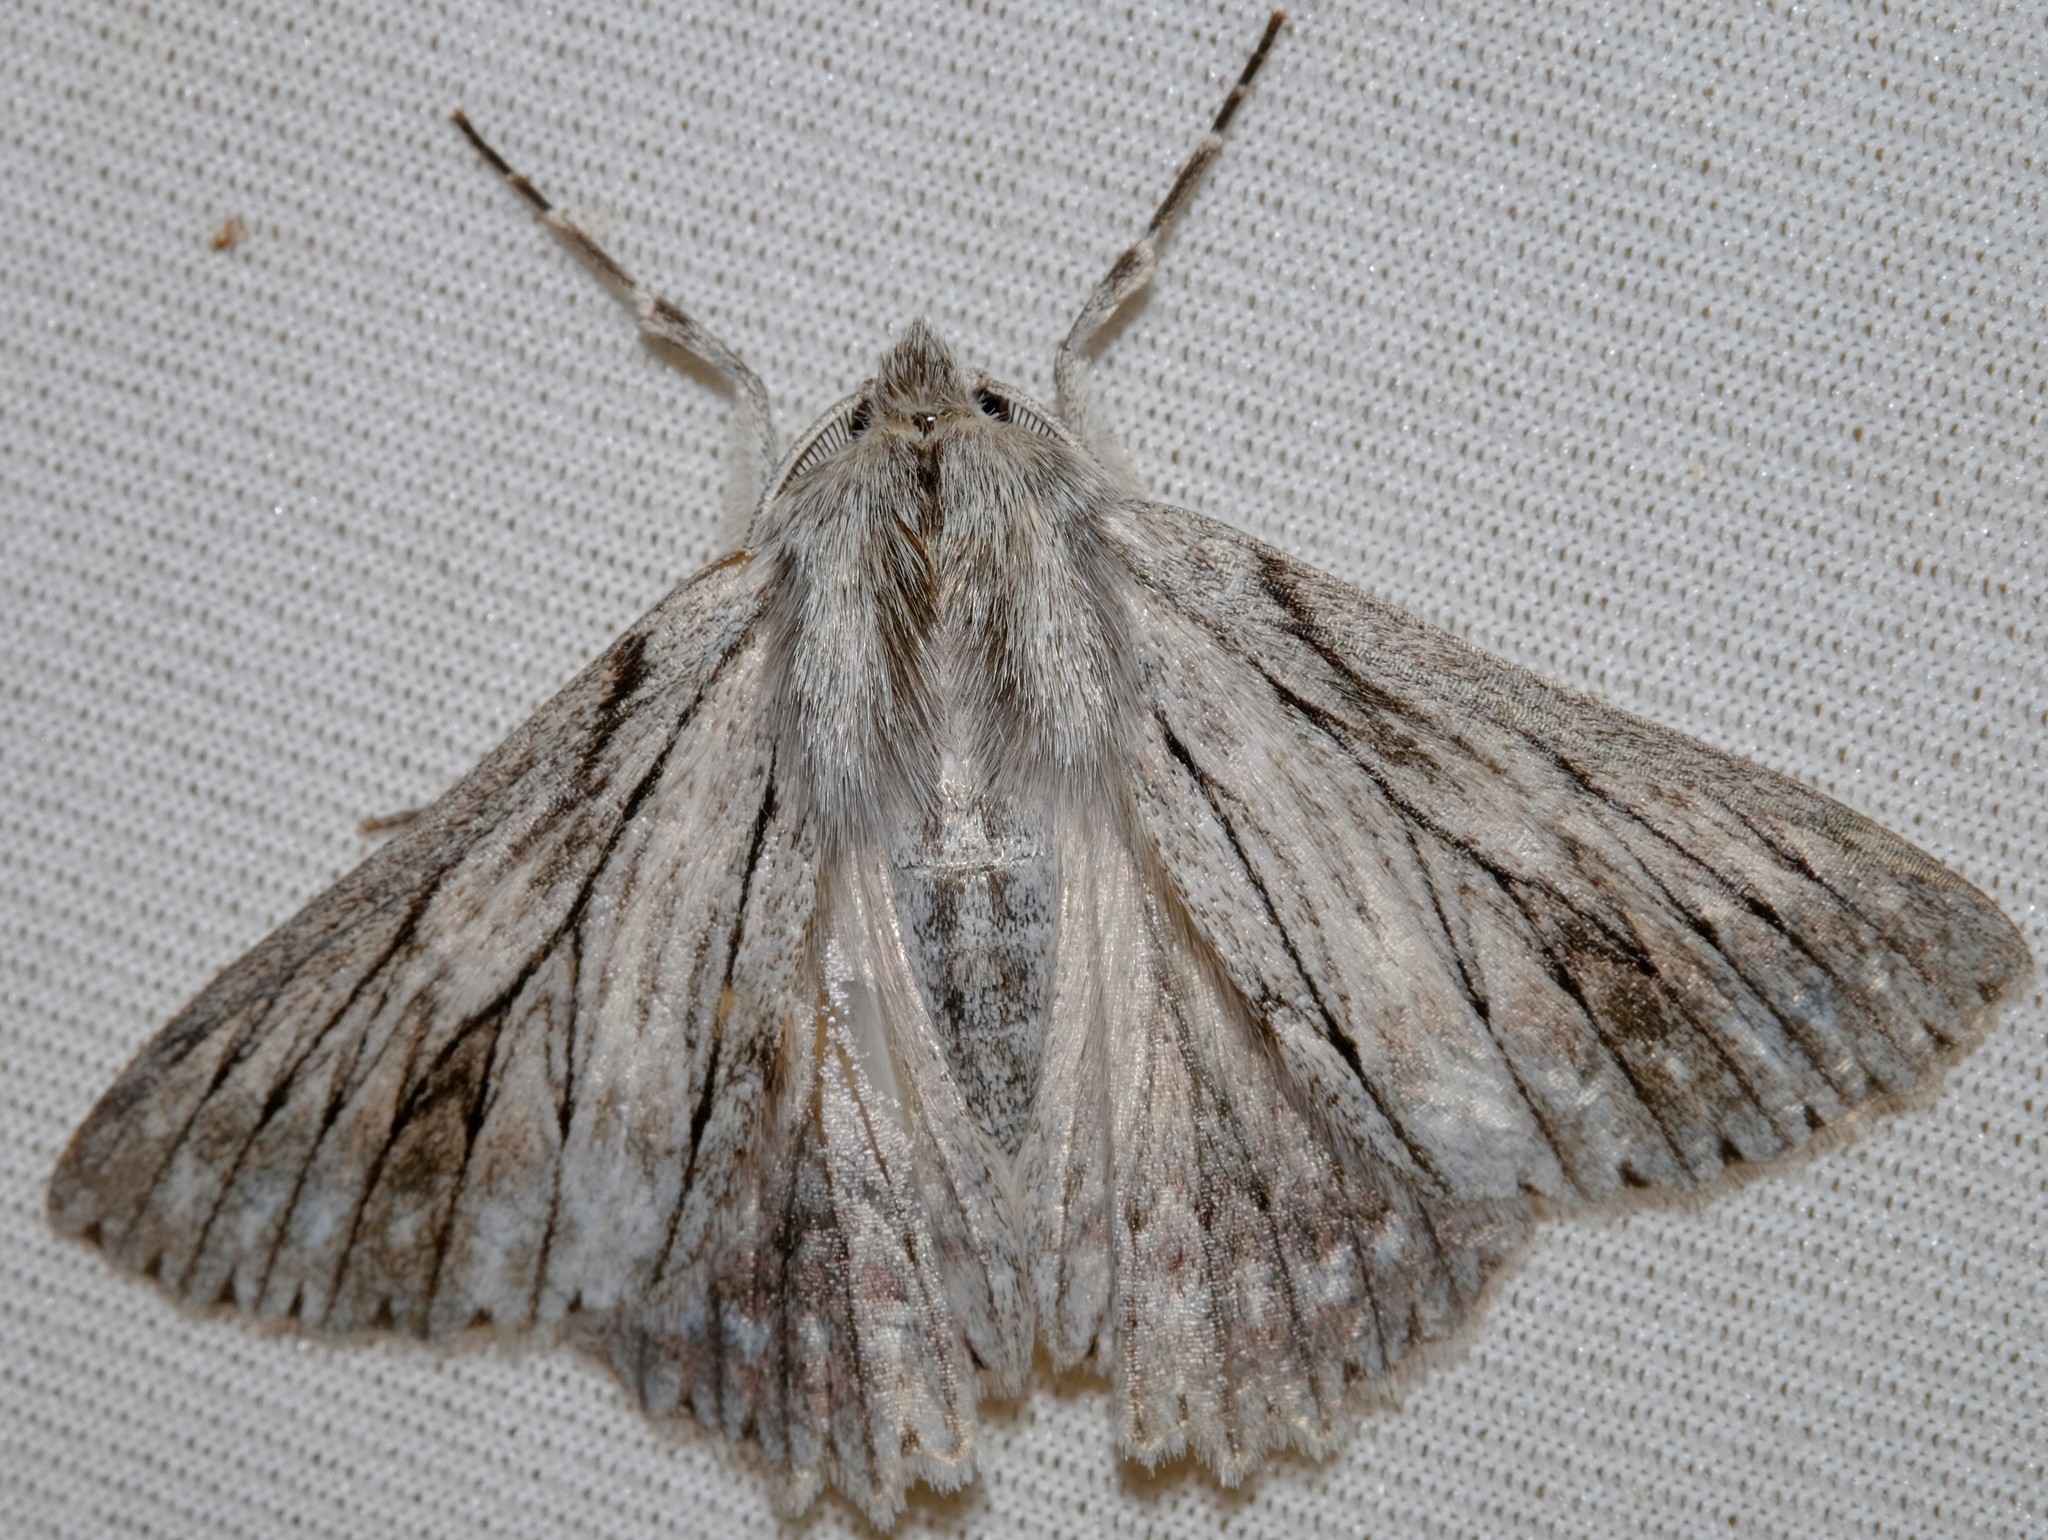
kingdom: Animalia
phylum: Arthropoda
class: Insecta
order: Lepidoptera
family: Geometridae
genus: Cyneoterpna
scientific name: Cyneoterpna wilsoni
